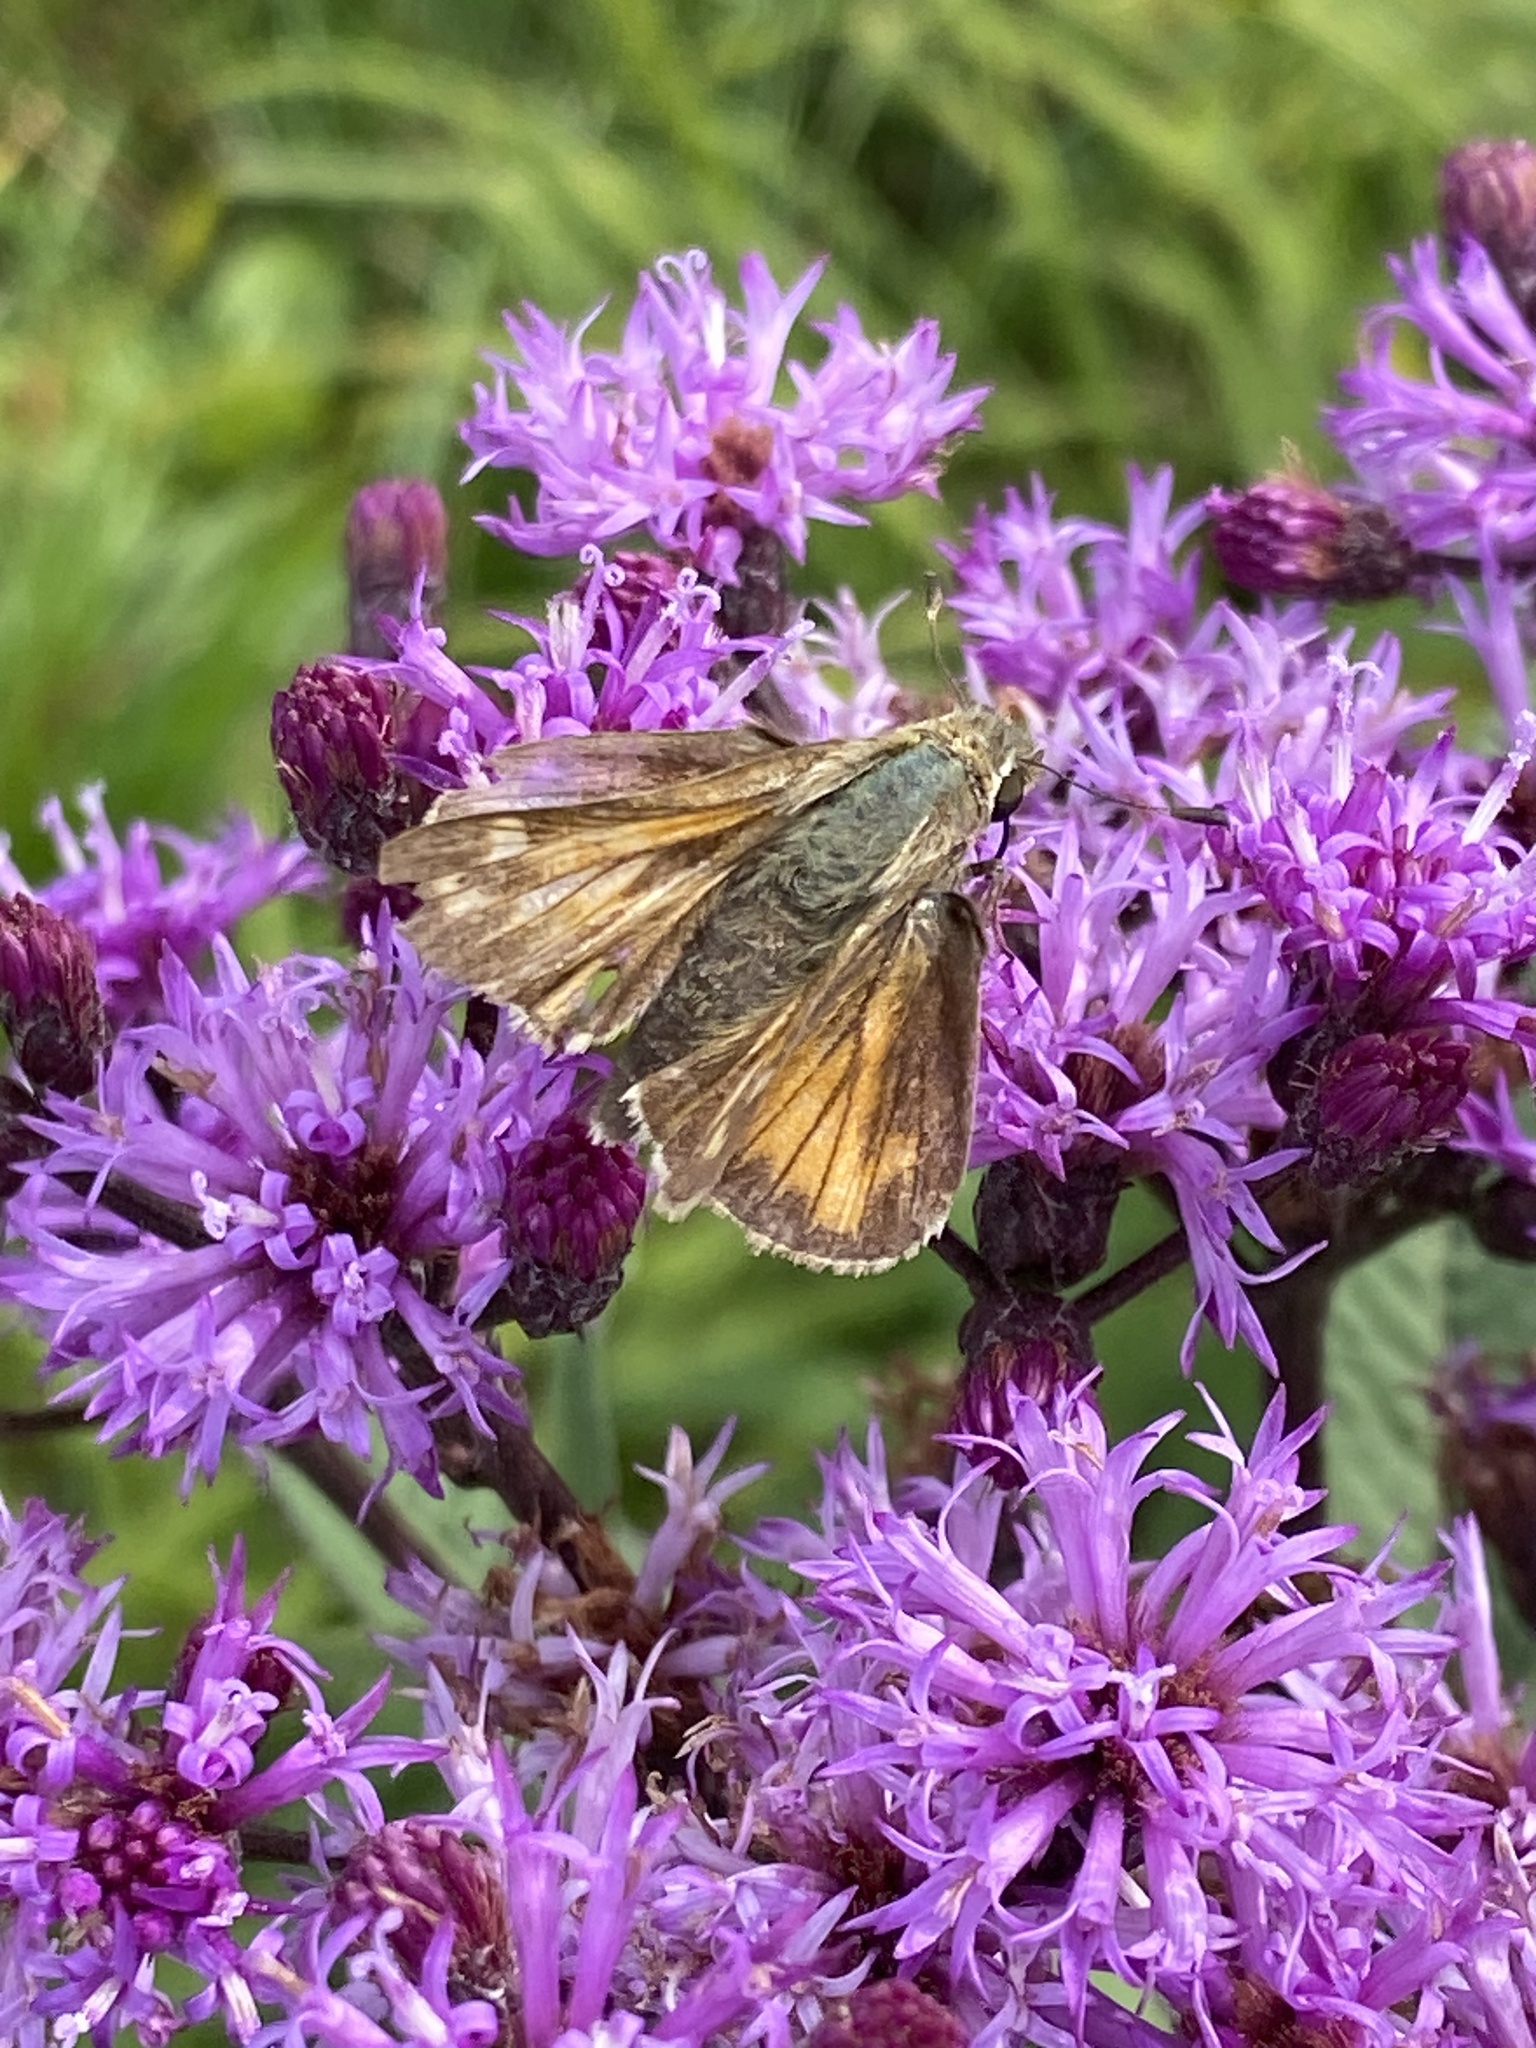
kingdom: Animalia
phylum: Arthropoda
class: Insecta
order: Lepidoptera
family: Hesperiidae
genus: Atalopedes
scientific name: Atalopedes
